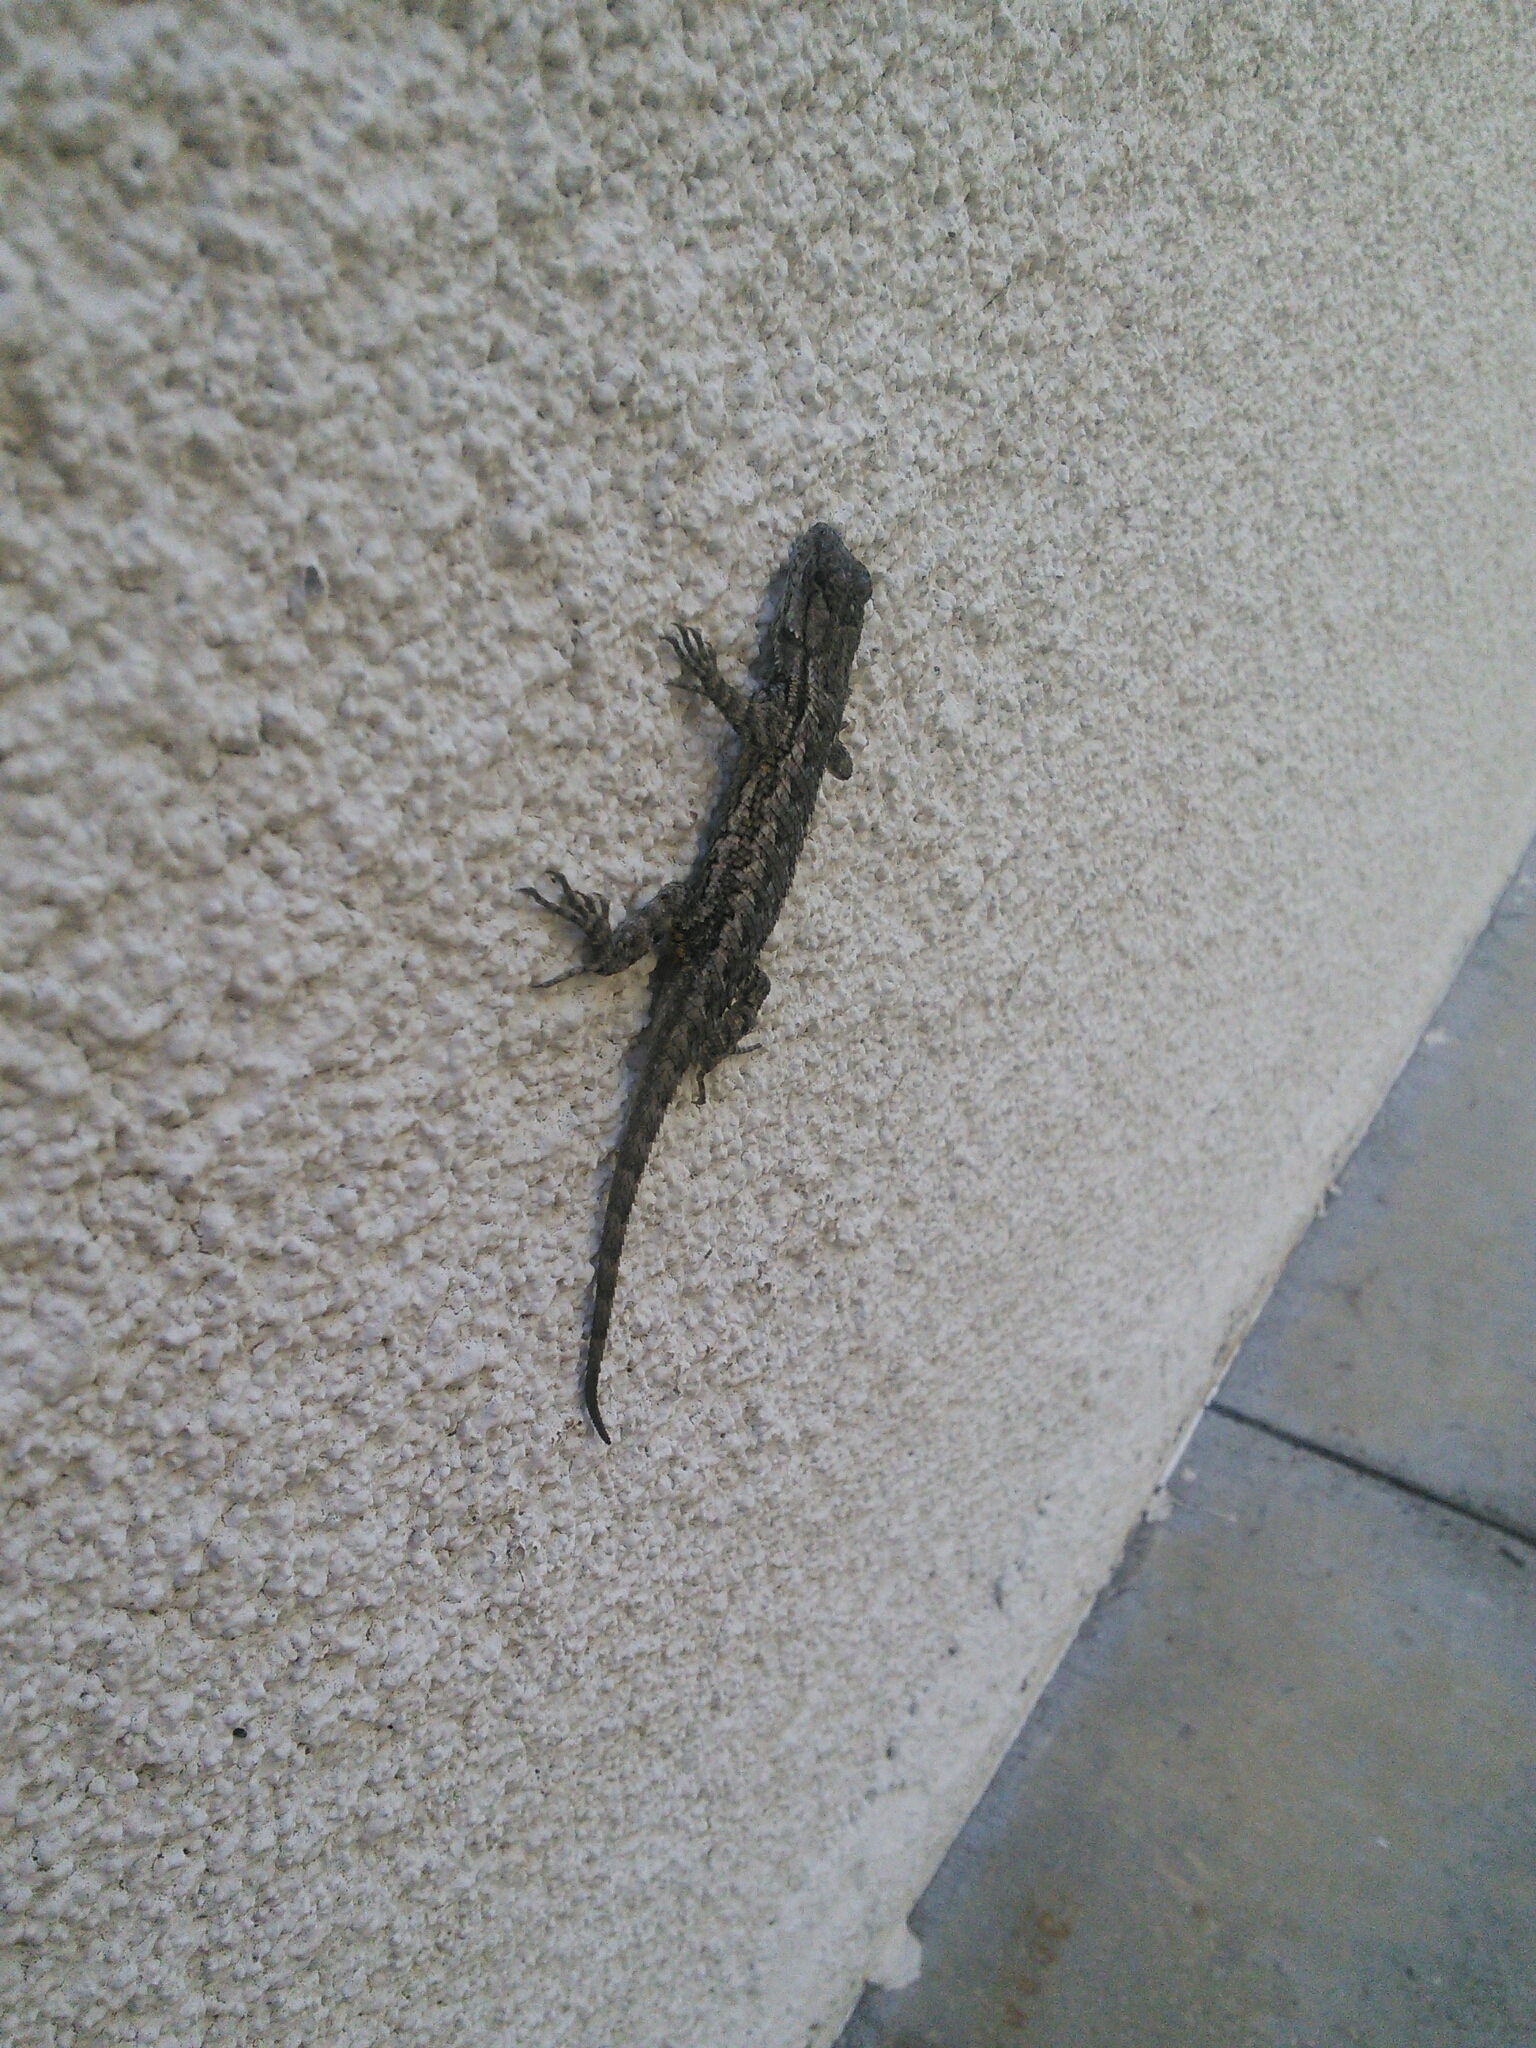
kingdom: Animalia
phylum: Chordata
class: Squamata
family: Phrynosomatidae
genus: Sceloporus
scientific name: Sceloporus occidentalis
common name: Western fence lizard
